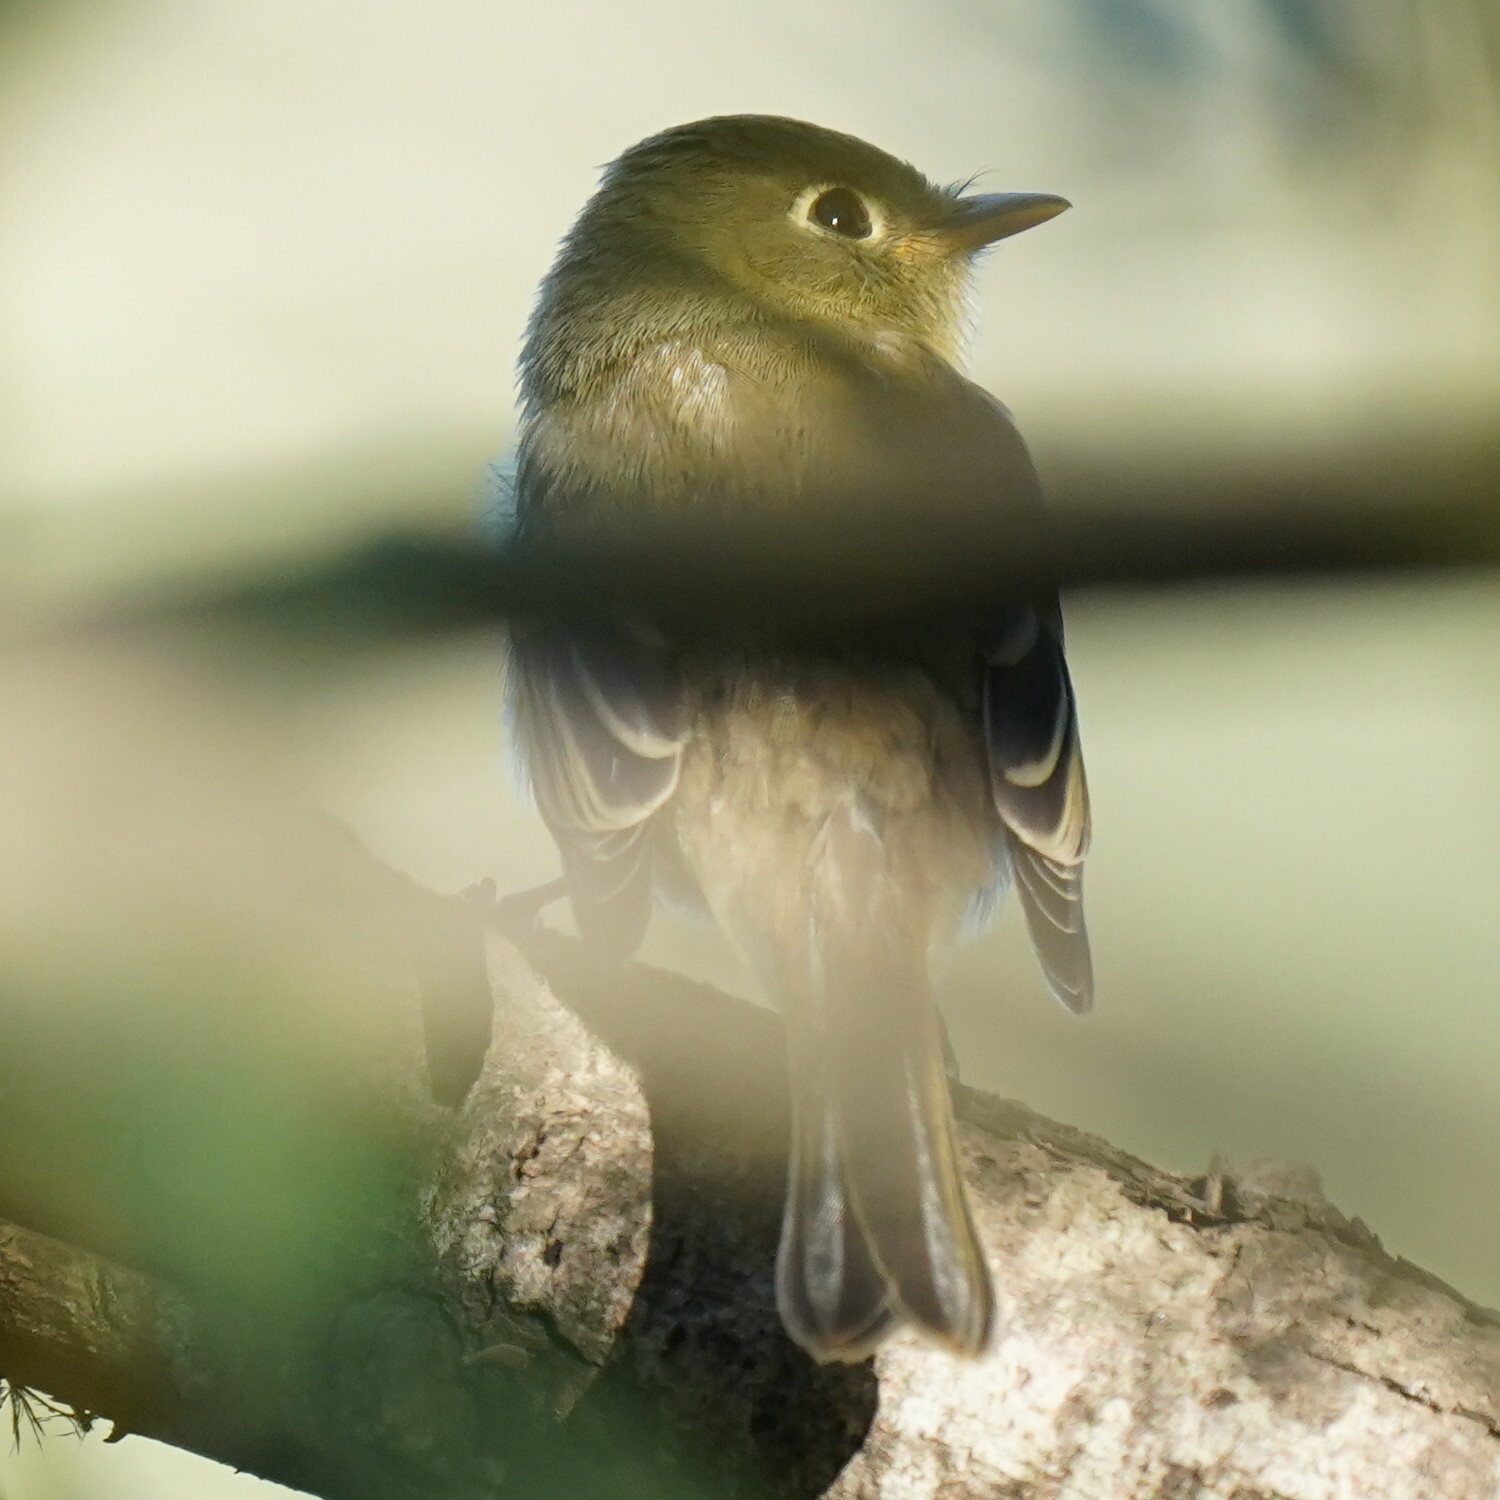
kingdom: Animalia
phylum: Chordata
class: Aves
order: Passeriformes
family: Tyrannidae
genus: Empidonax
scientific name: Empidonax difficilis
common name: Pacific-slope flycatcher
